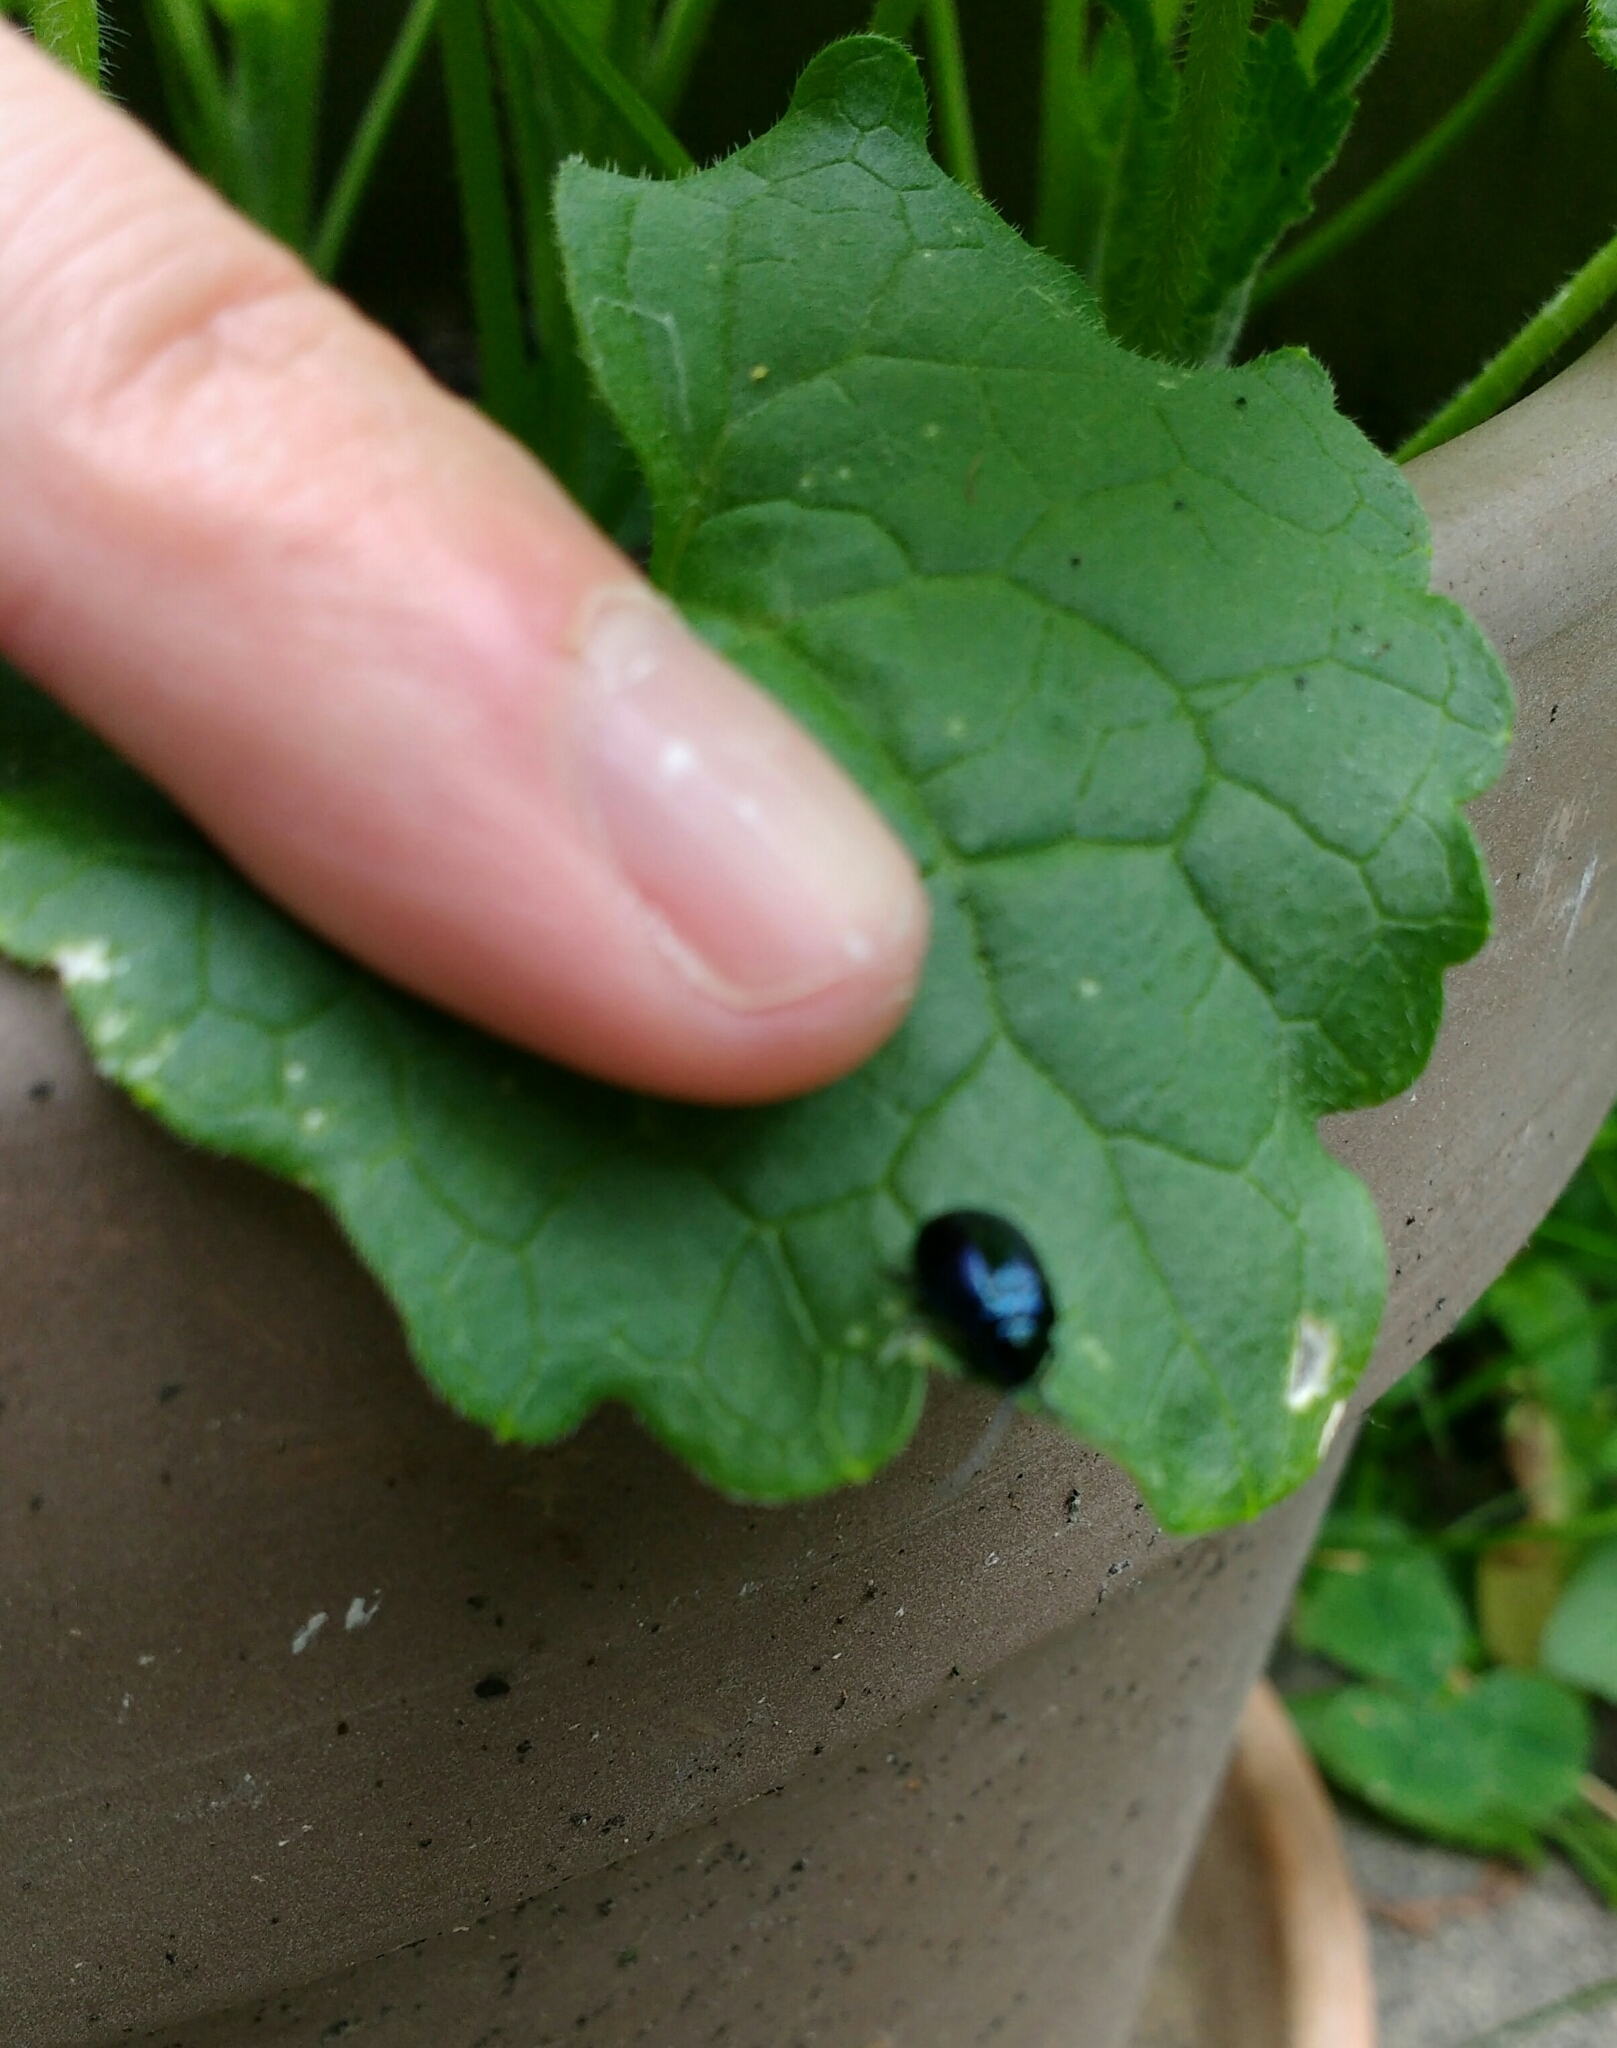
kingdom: Animalia
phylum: Arthropoda
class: Insecta
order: Coleoptera
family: Chrysomelidae
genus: Agelastica
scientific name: Agelastica alni
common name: Alder leaf beetle
